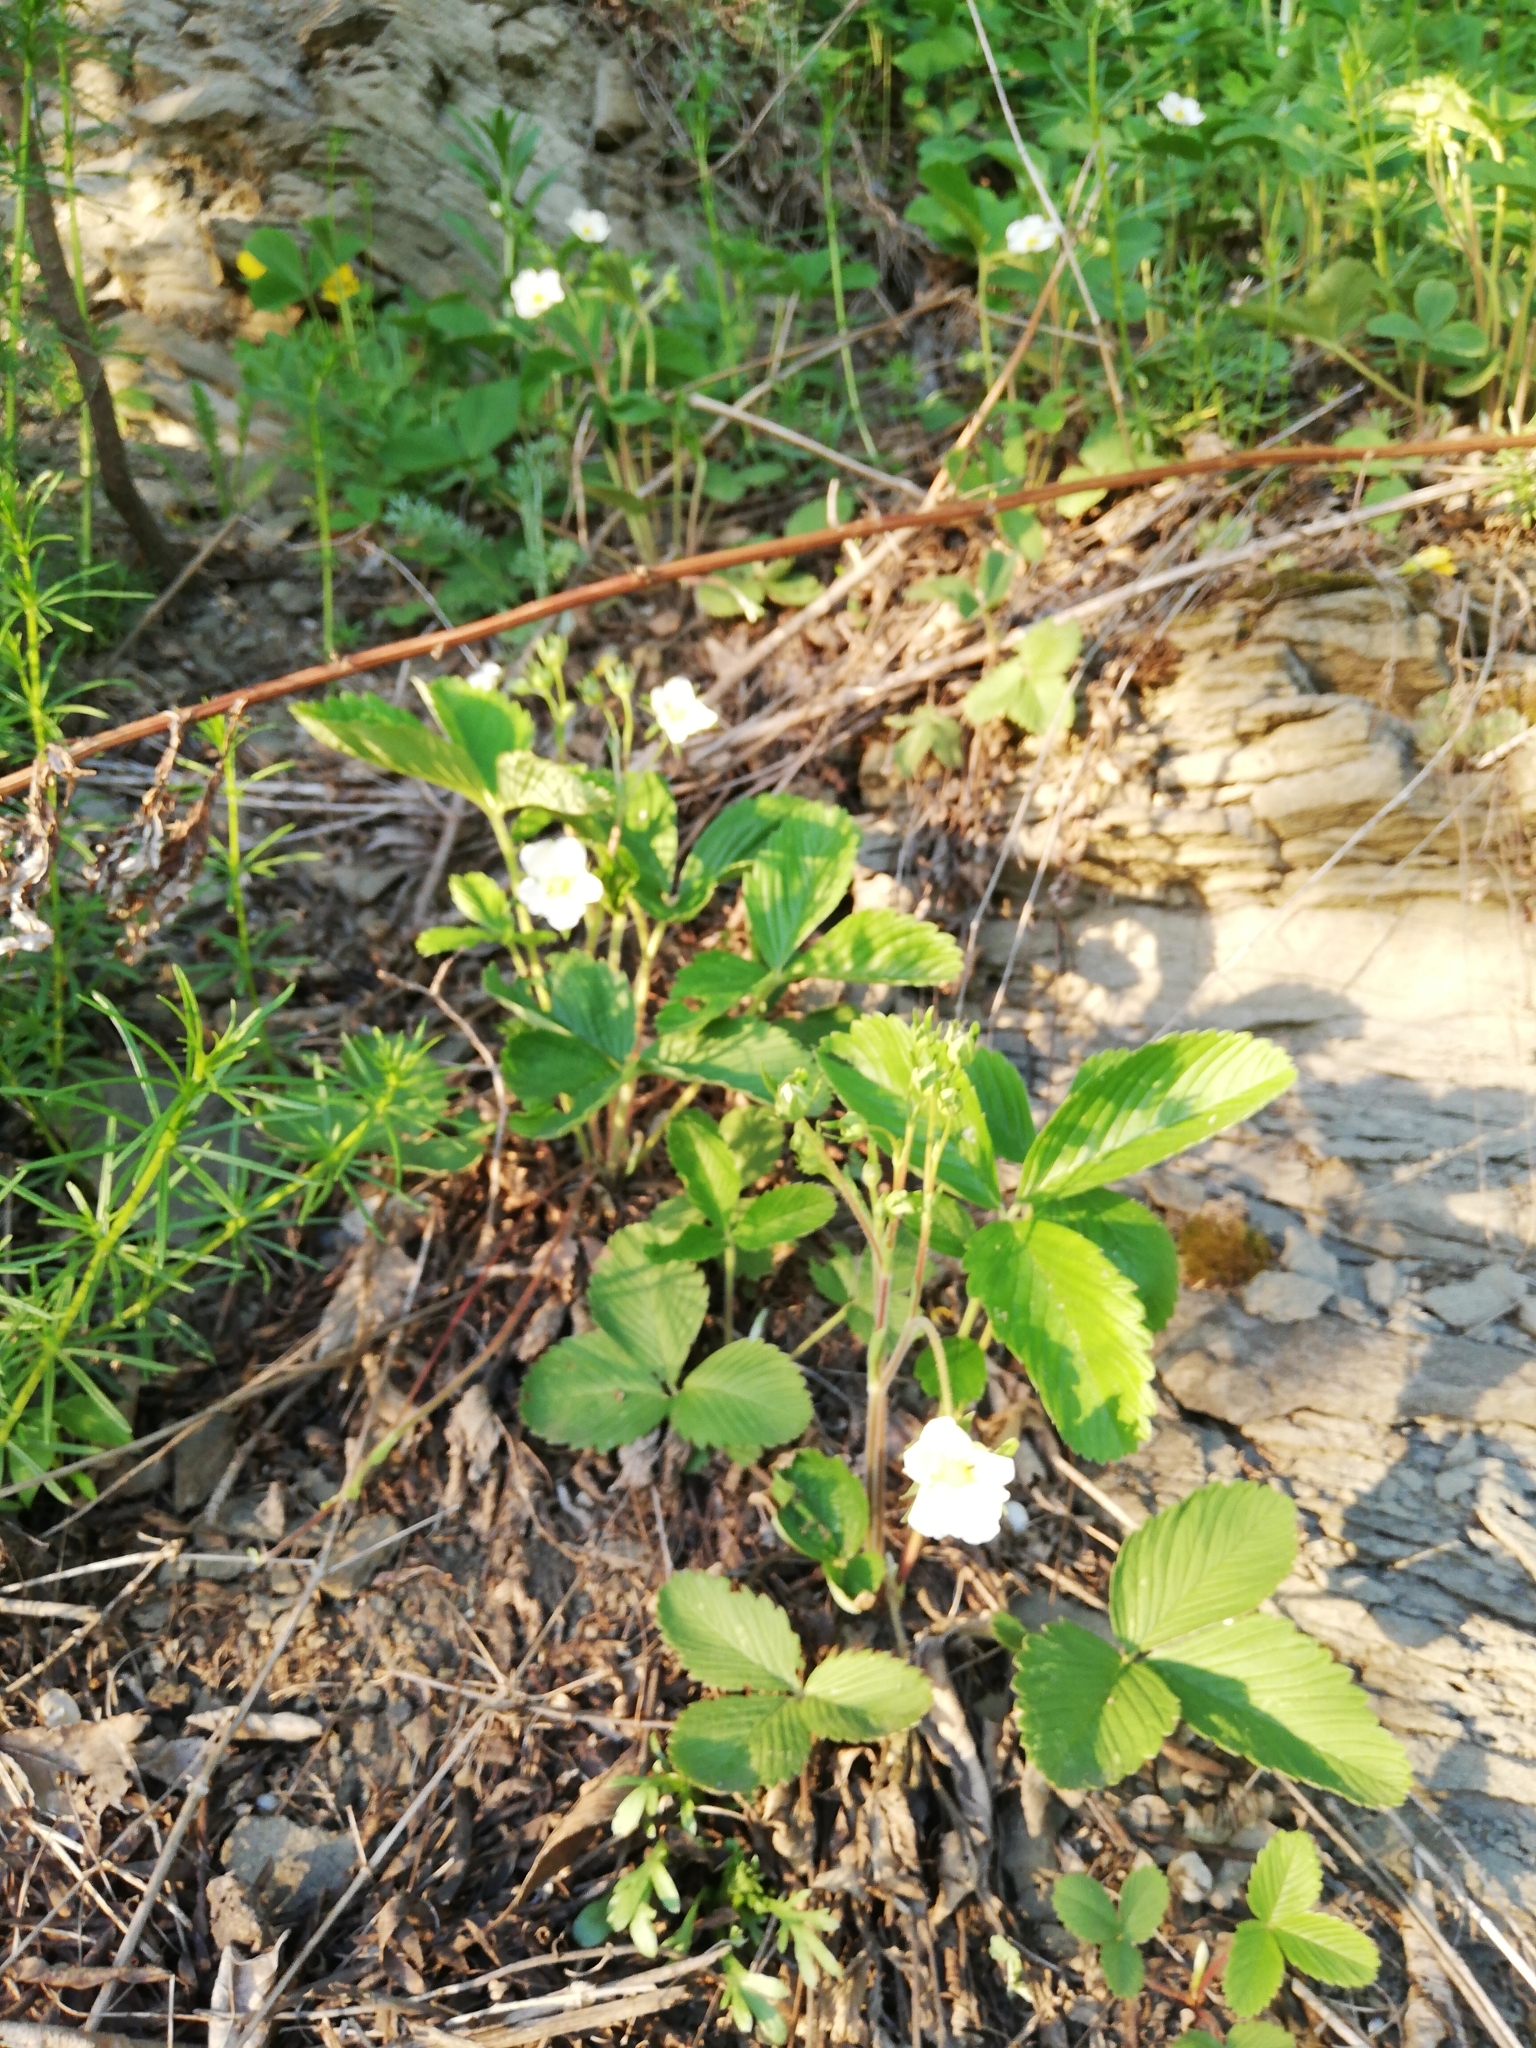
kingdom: Plantae
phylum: Tracheophyta
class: Magnoliopsida
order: Rosales
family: Rosaceae
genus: Fragaria
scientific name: Fragaria ananassa
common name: Garden strawberry
